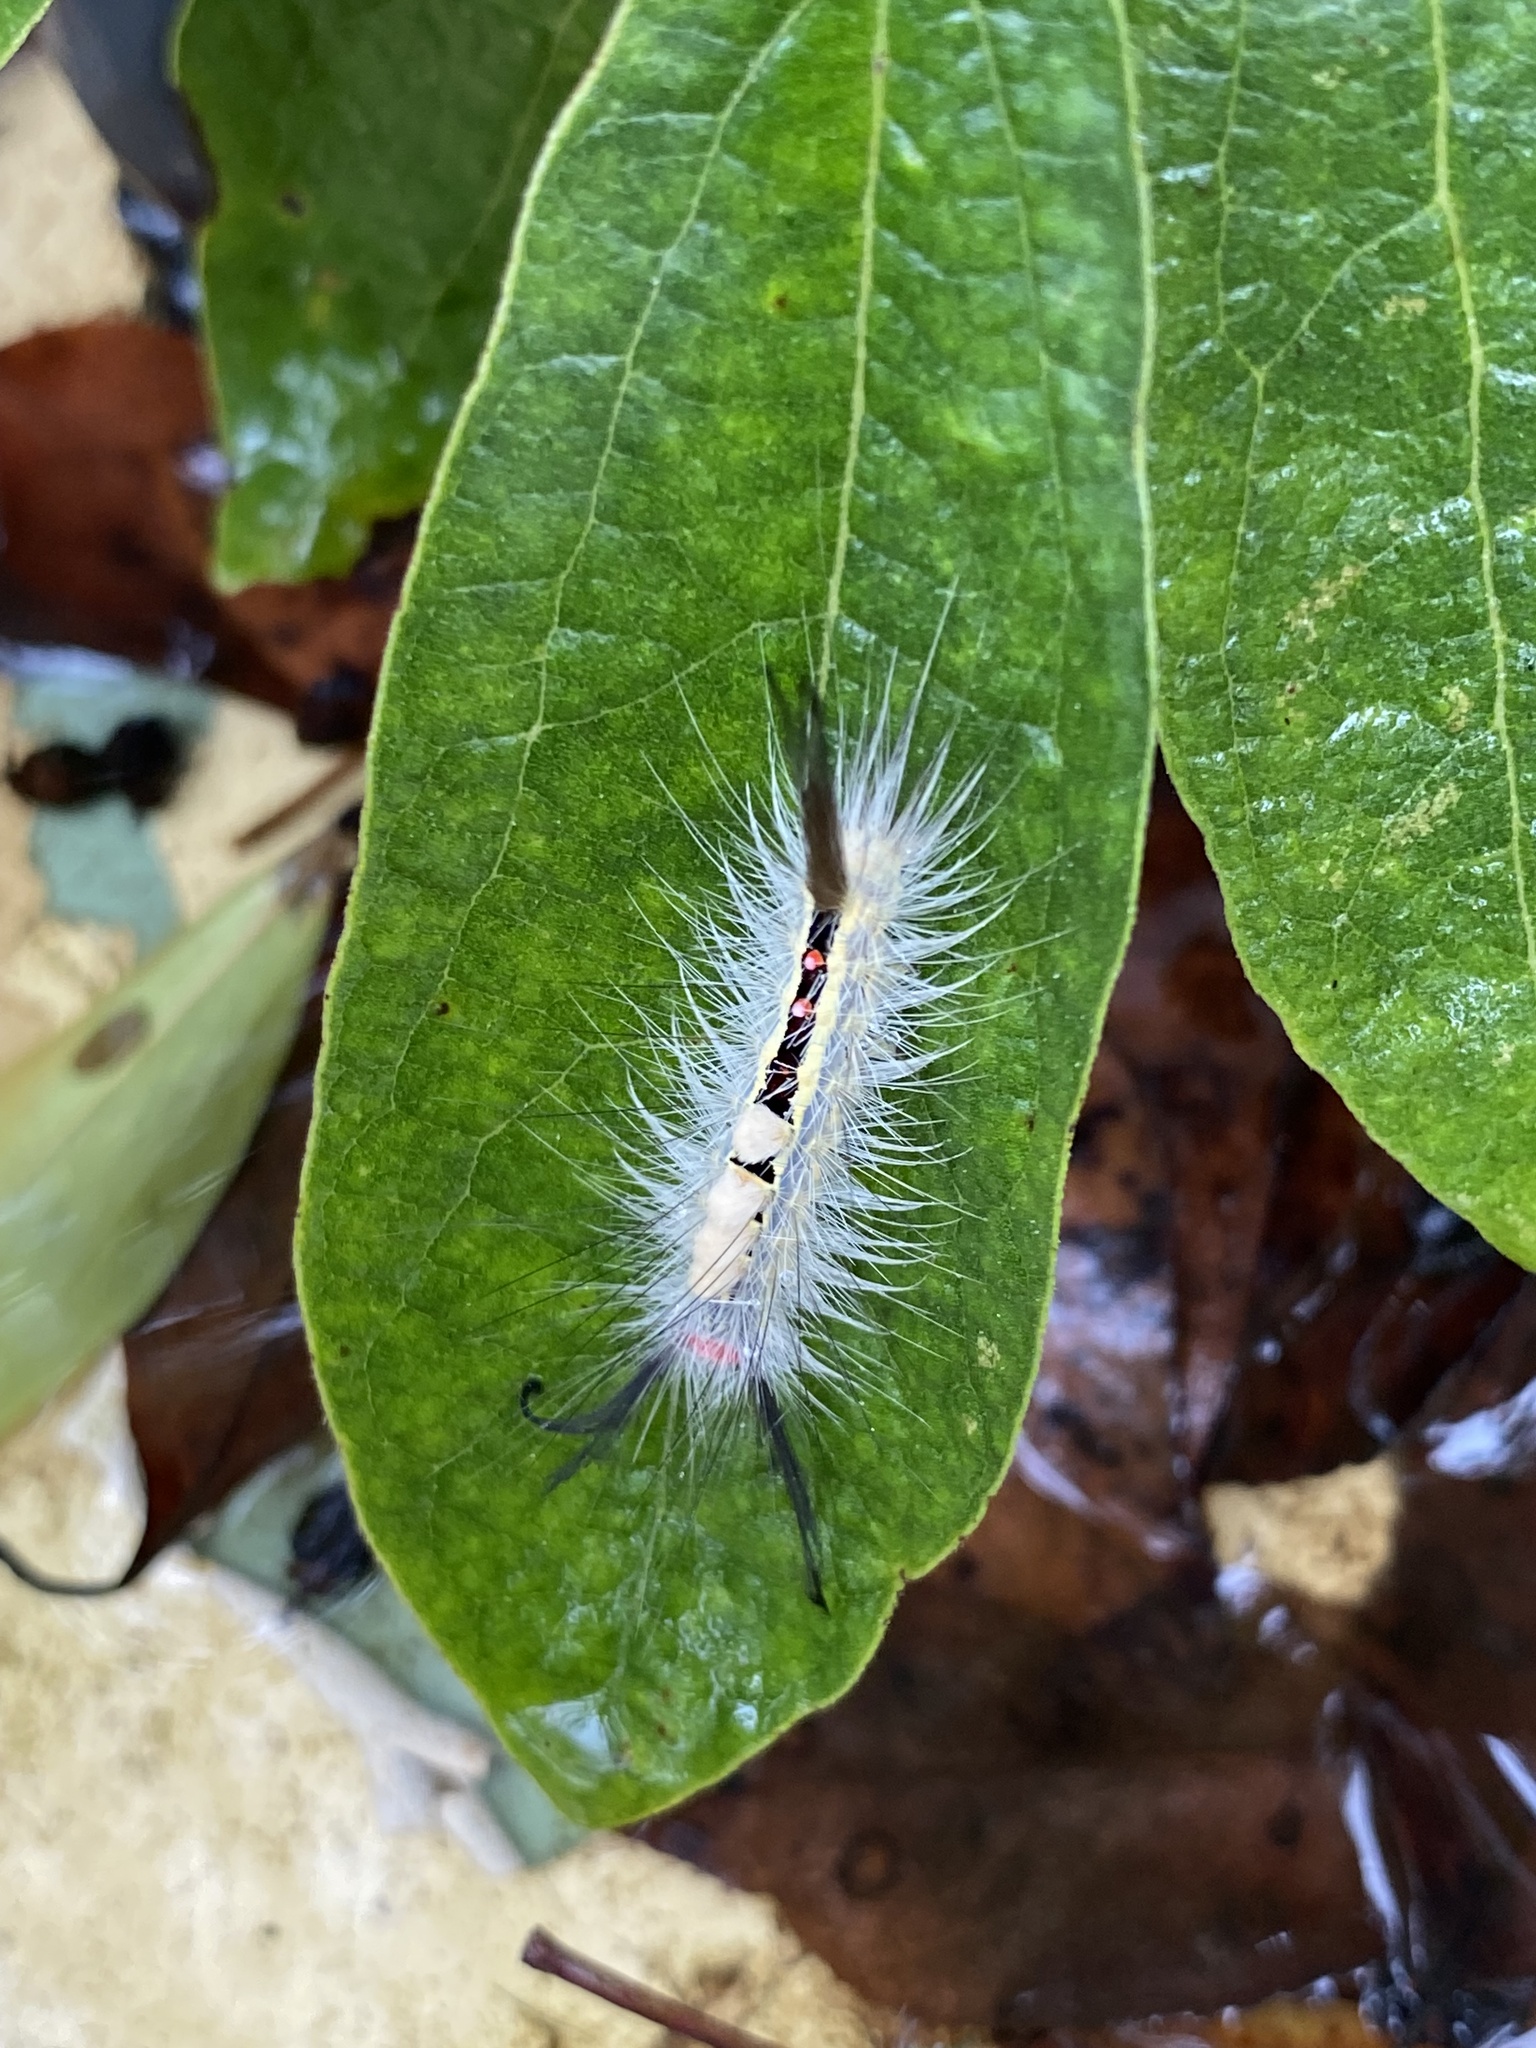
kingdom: Animalia
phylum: Arthropoda
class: Insecta
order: Lepidoptera
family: Erebidae
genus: Orgyia
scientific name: Orgyia leucostigma
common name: White-marked tussock moth
